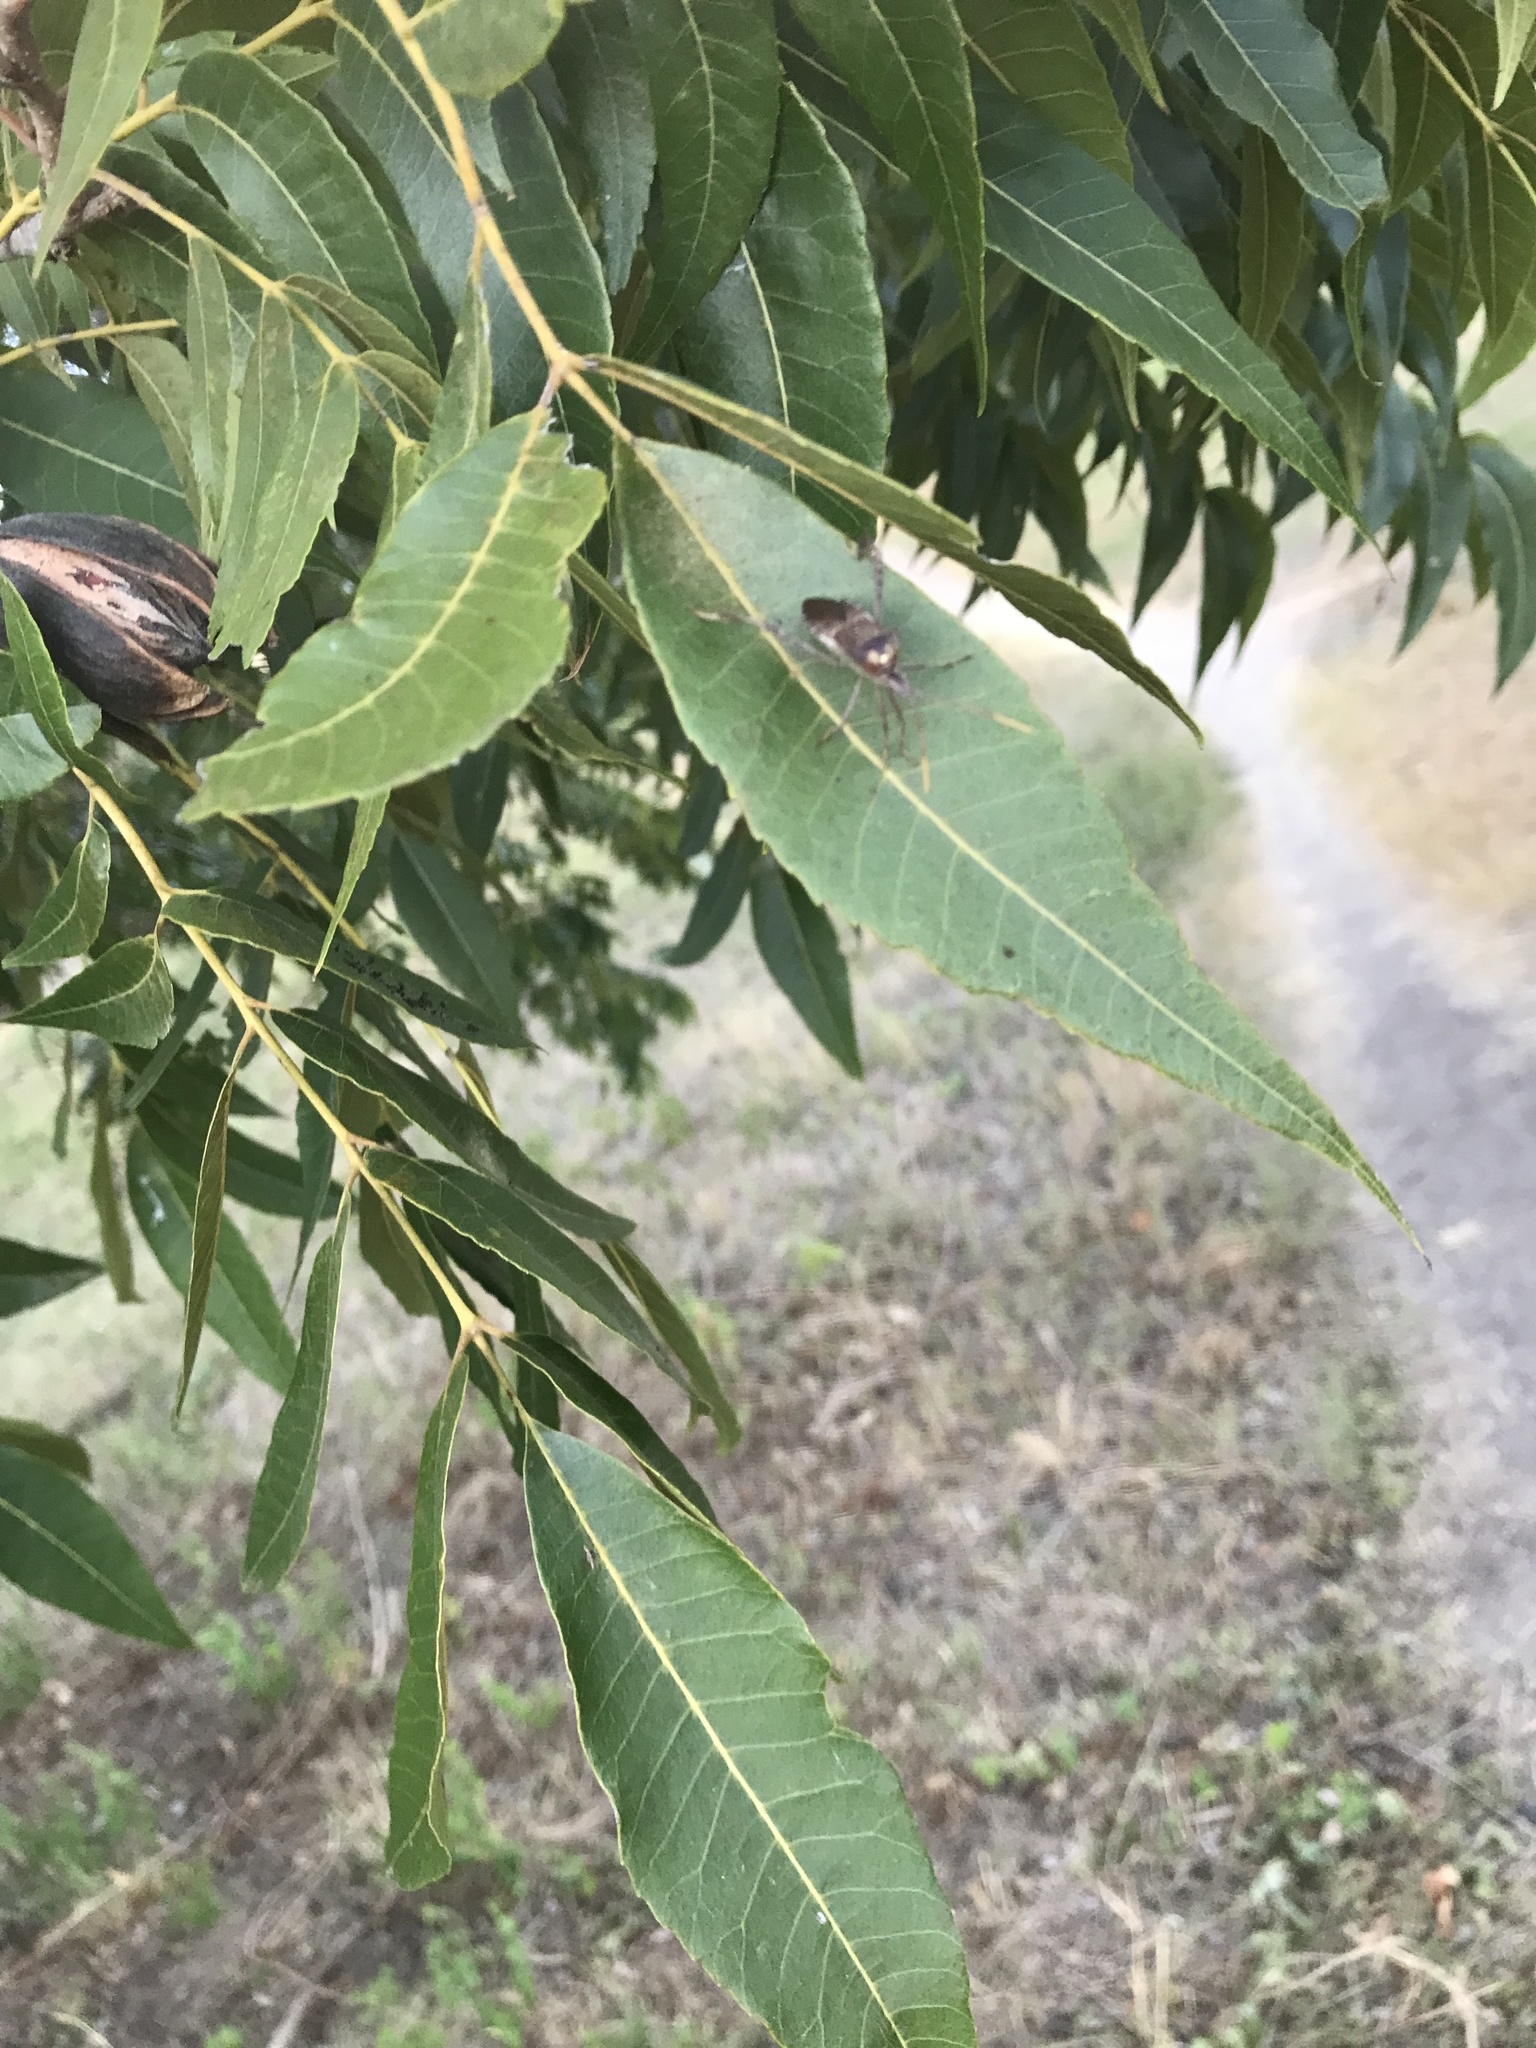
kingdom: Animalia
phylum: Arthropoda
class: Insecta
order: Hemiptera
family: Coreidae
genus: Leptoglossus
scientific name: Leptoglossus zonatus
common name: Large-legged bug
